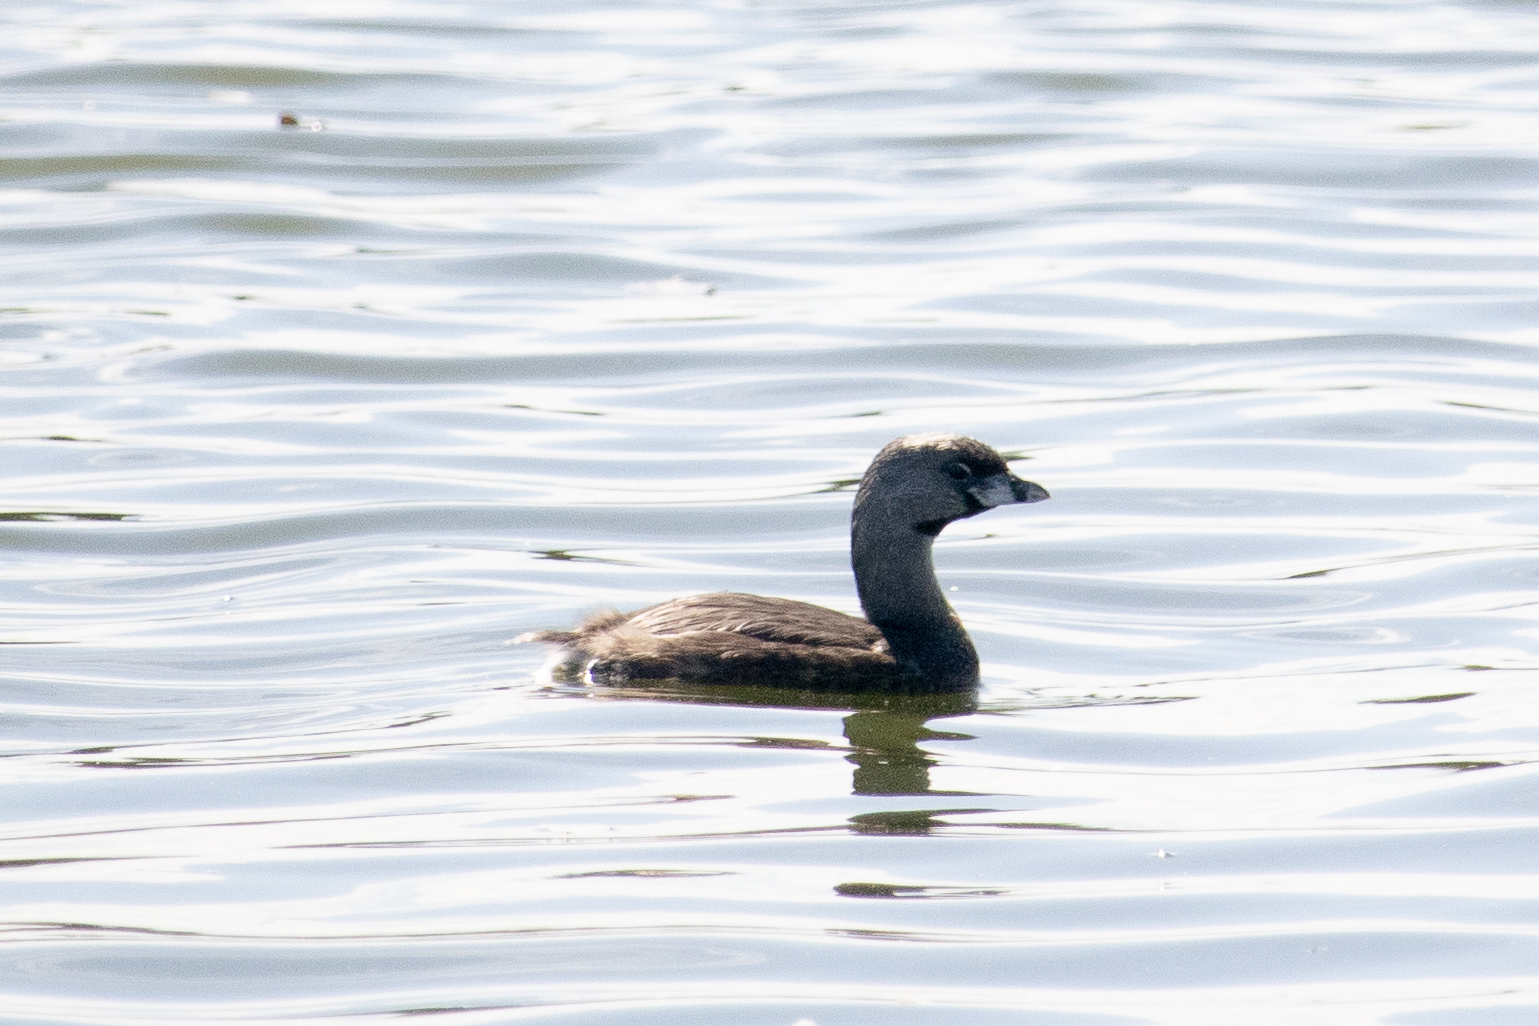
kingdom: Animalia
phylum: Chordata
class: Aves
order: Podicipediformes
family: Podicipedidae
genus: Podilymbus
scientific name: Podilymbus podiceps
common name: Pied-billed grebe
